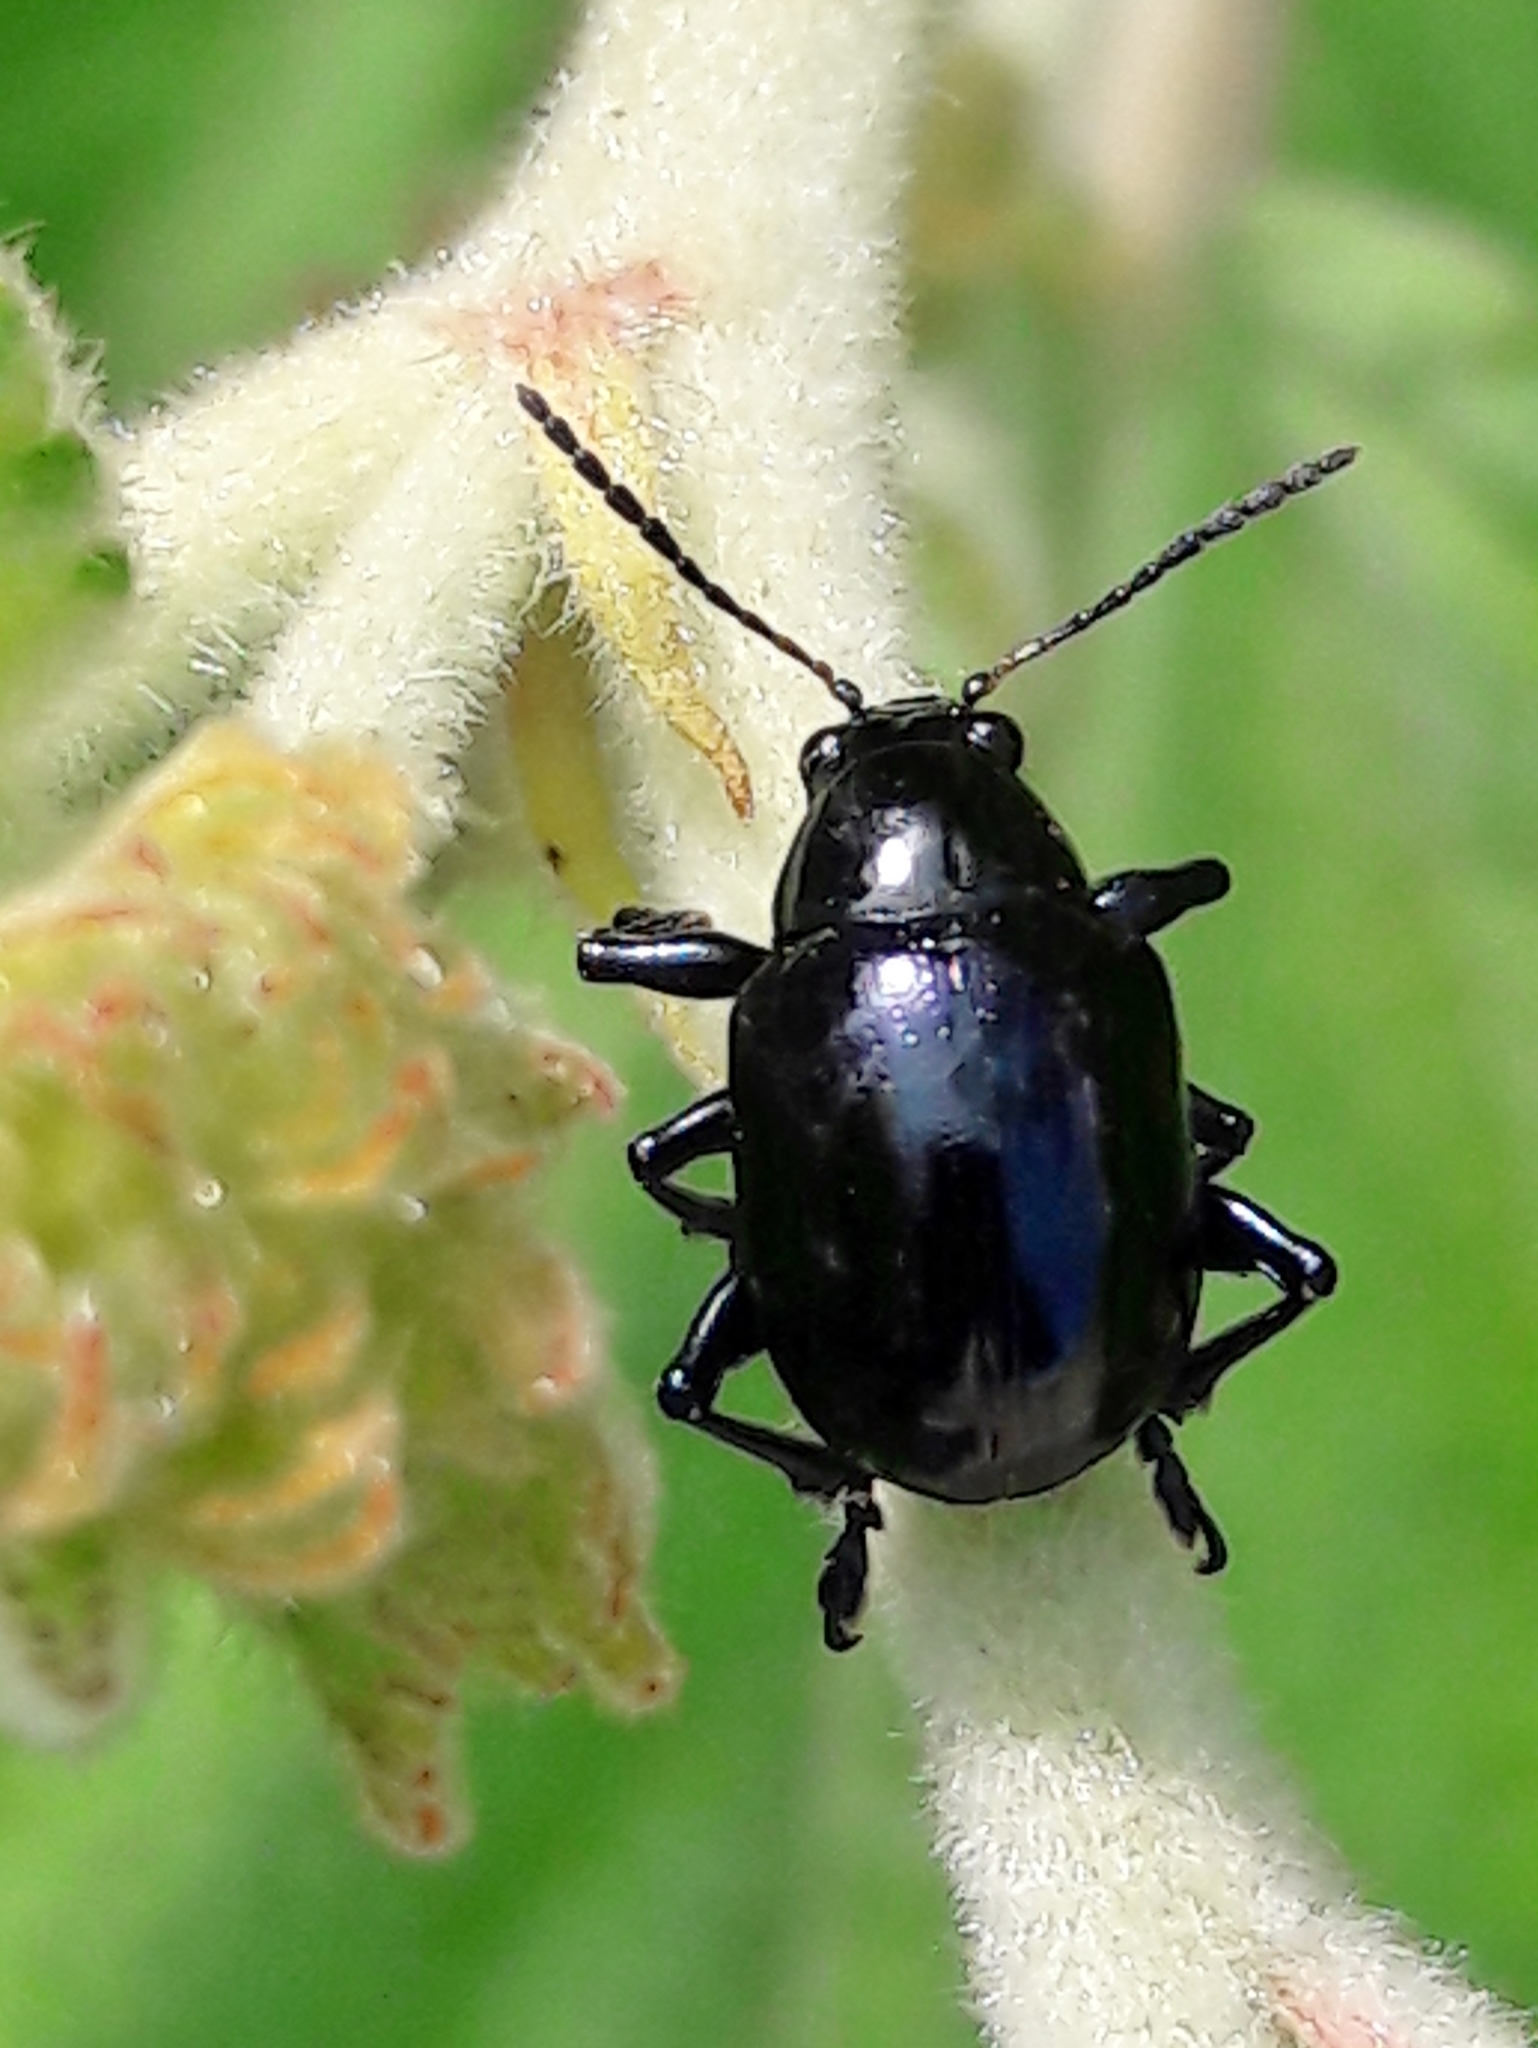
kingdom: Animalia
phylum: Arthropoda
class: Insecta
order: Coleoptera
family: Chrysomelidae
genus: Typophorus
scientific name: Typophorus nigritus
